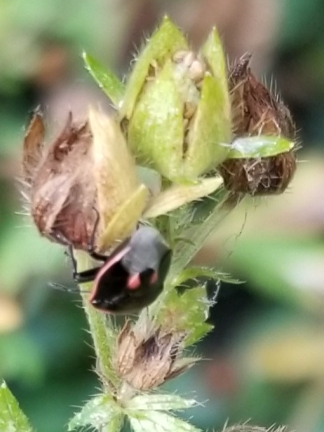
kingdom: Animalia
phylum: Arthropoda
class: Insecta
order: Hemiptera
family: Pentatomidae
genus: Cosmopepla
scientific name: Cosmopepla lintneriana
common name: Twice-stabbed stink bug
